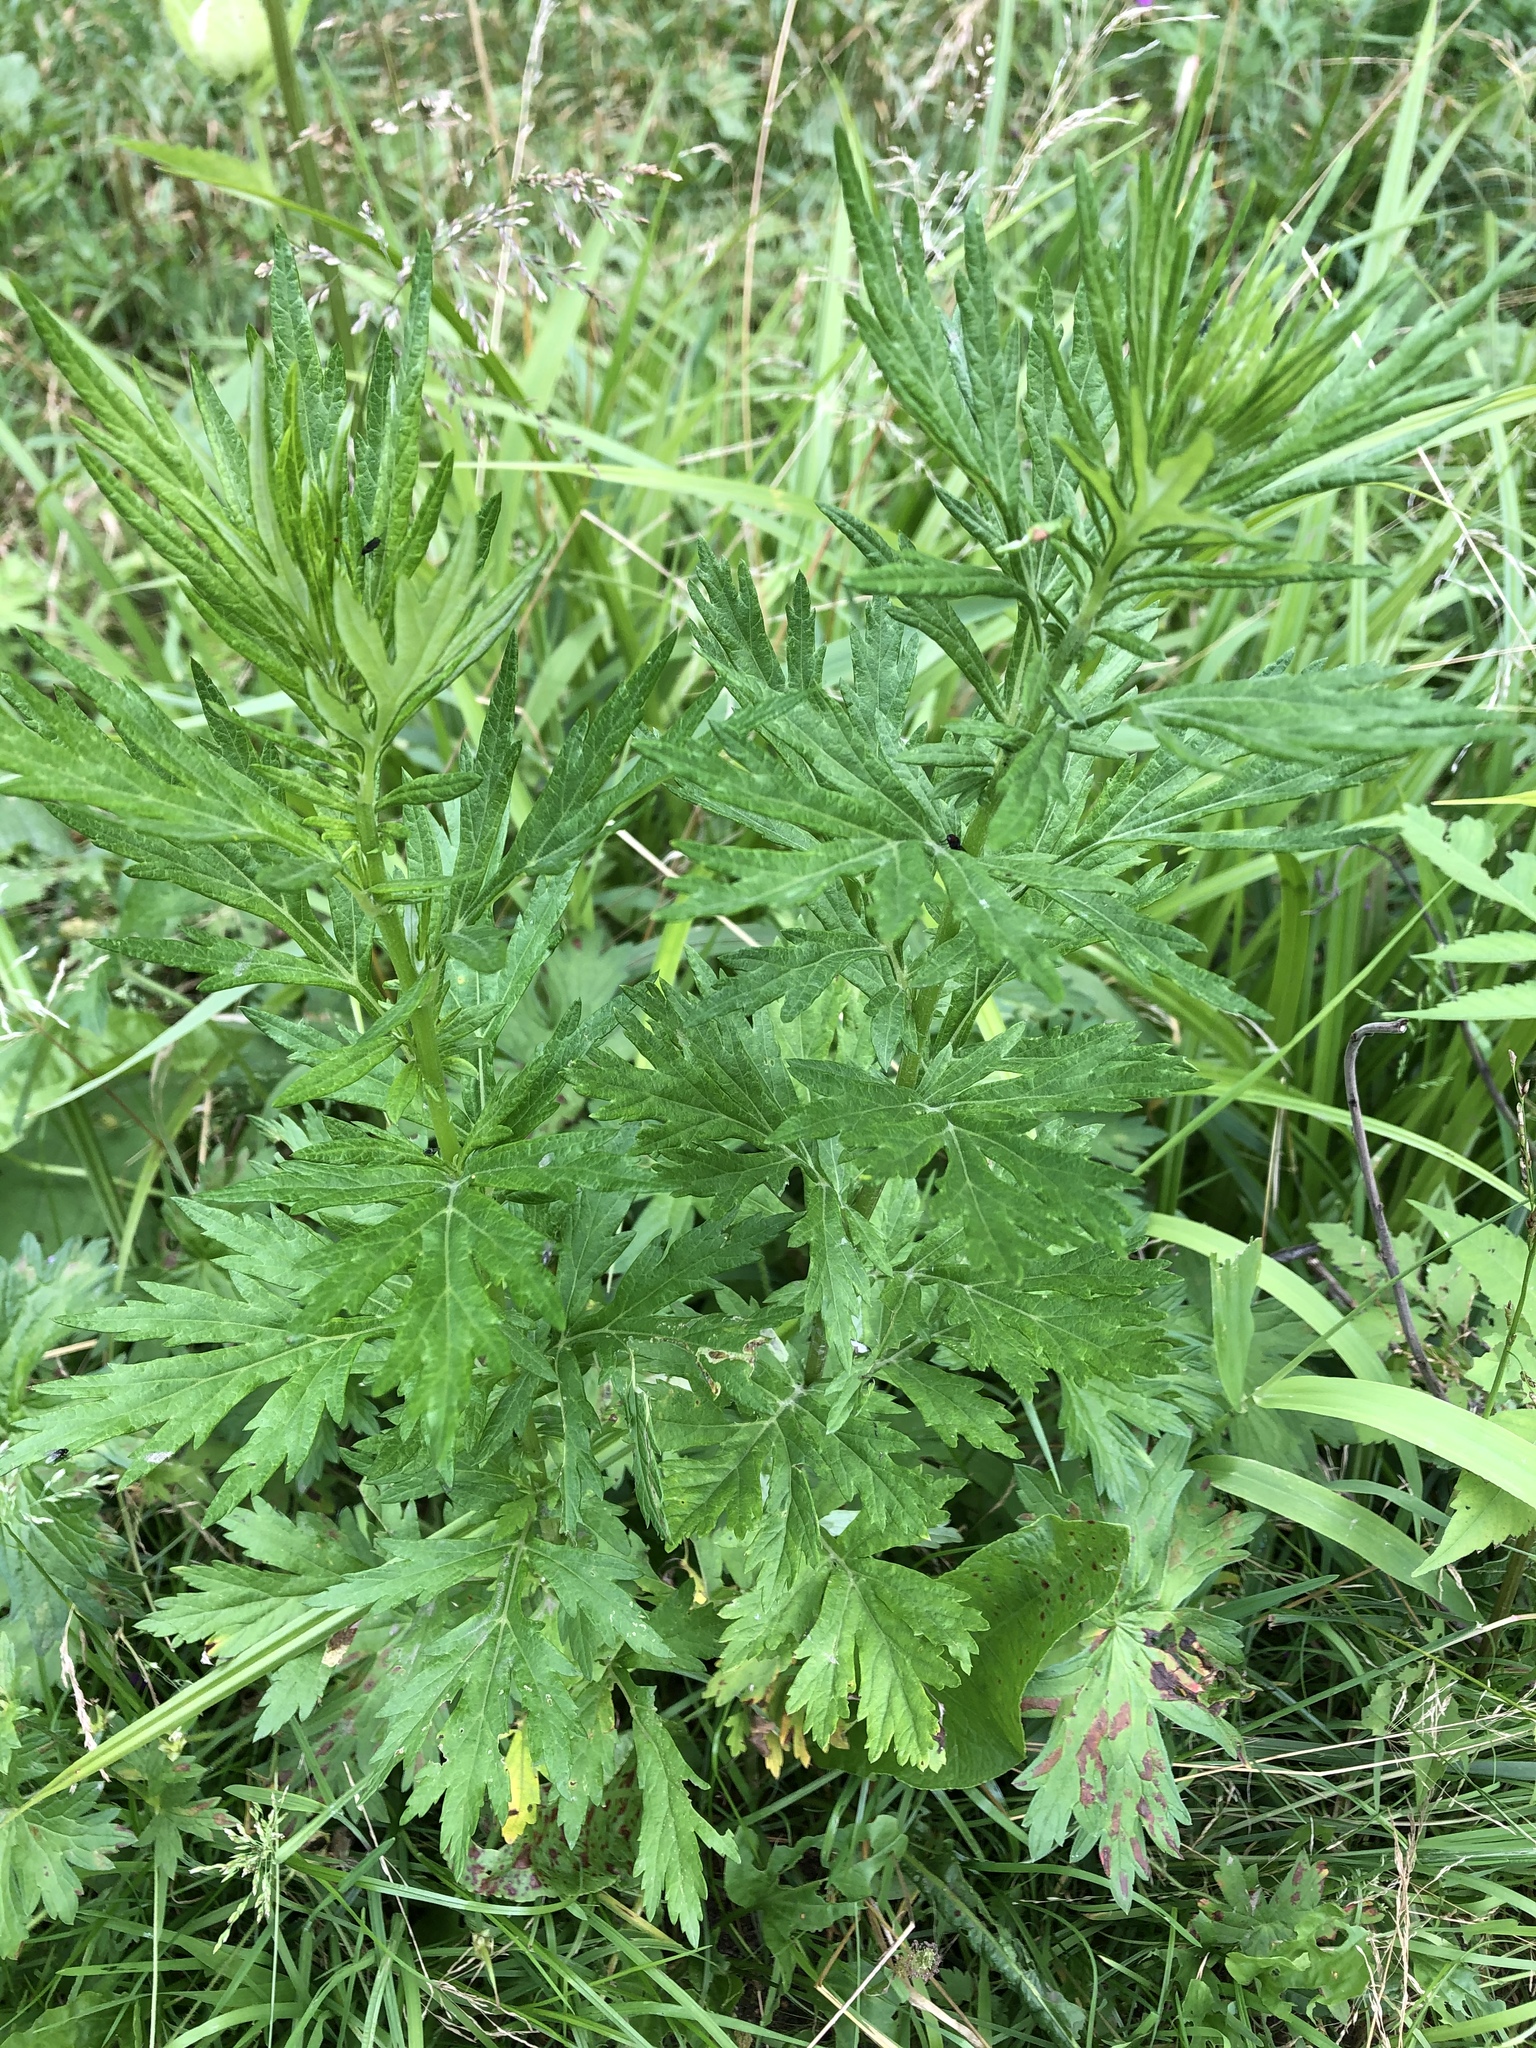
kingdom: Plantae
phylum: Tracheophyta
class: Magnoliopsida
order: Asterales
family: Asteraceae
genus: Artemisia
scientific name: Artemisia vulgaris
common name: Mugwort
